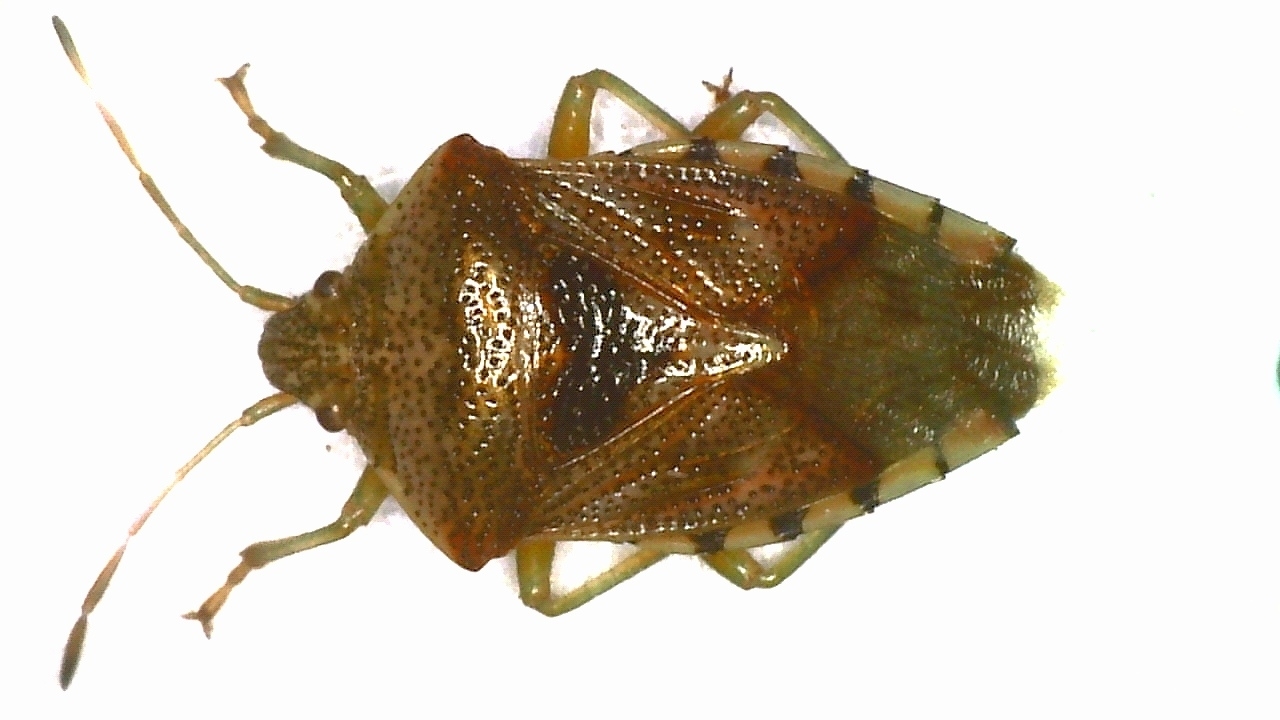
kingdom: Animalia
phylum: Arthropoda
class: Insecta
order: Hemiptera
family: Acanthosomatidae
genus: Elasmucha
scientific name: Elasmucha grisea
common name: Parent bug
